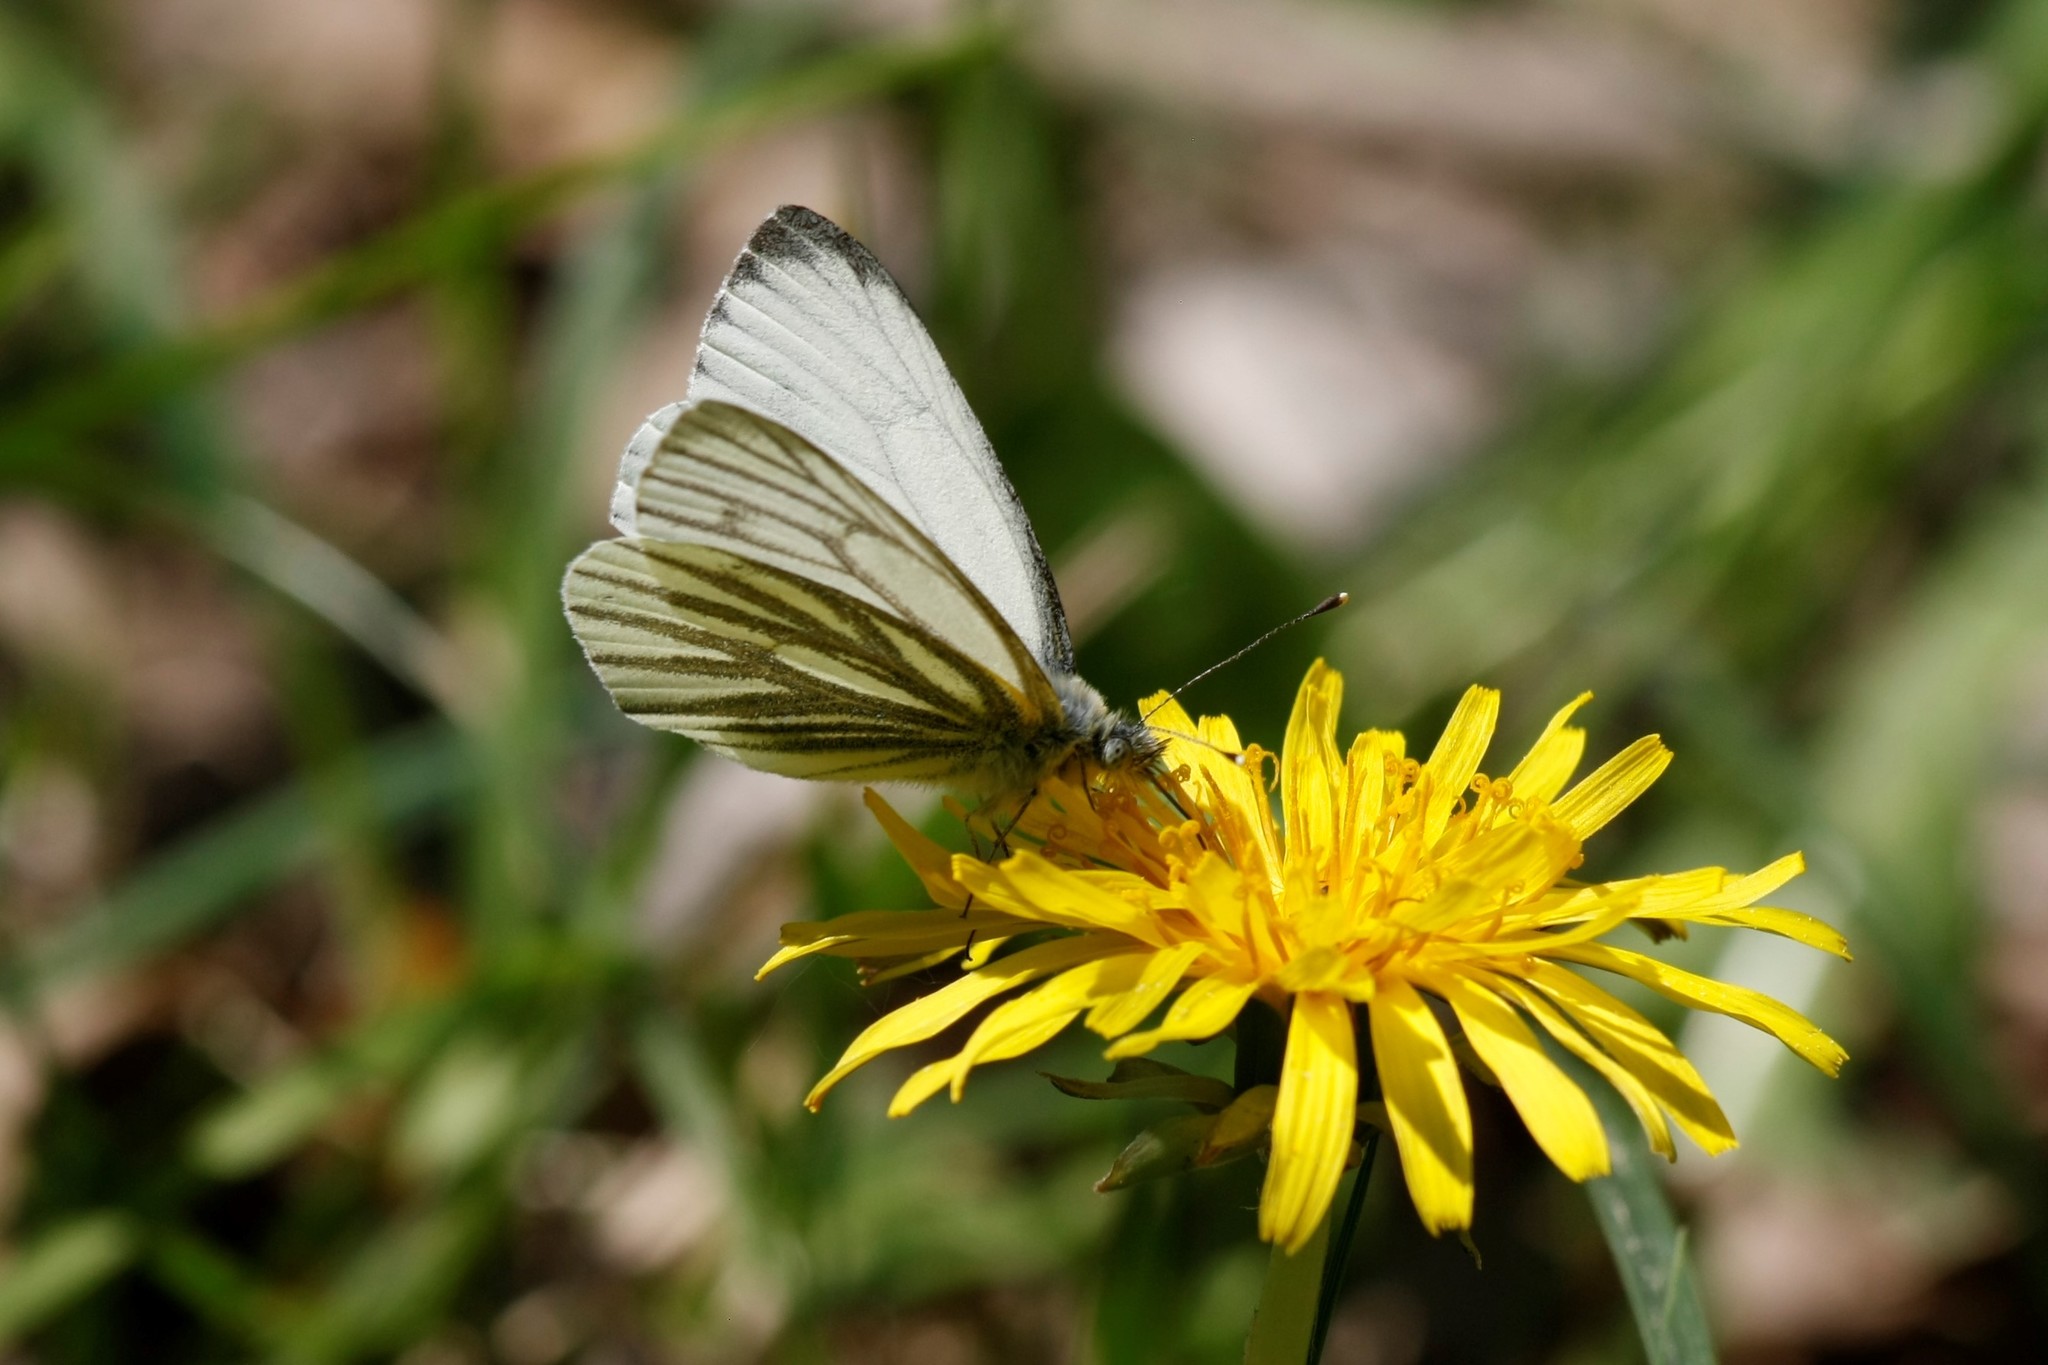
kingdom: Animalia
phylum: Arthropoda
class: Insecta
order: Lepidoptera
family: Pieridae
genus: Pieris
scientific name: Pieris napi
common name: Green-veined white
